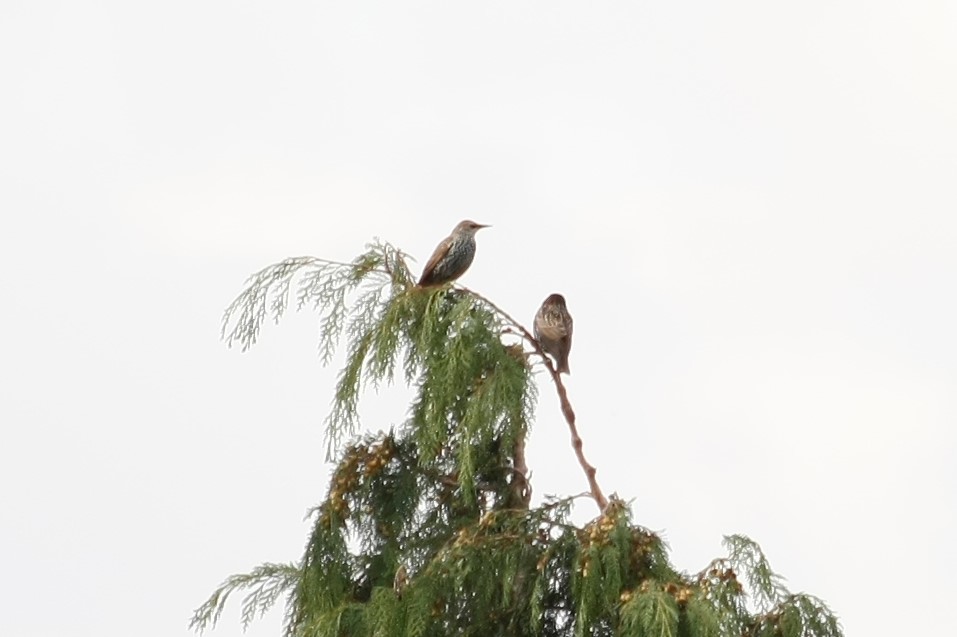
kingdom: Animalia
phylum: Chordata
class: Aves
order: Passeriformes
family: Sturnidae
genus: Sturnus
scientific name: Sturnus vulgaris
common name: Common starling
